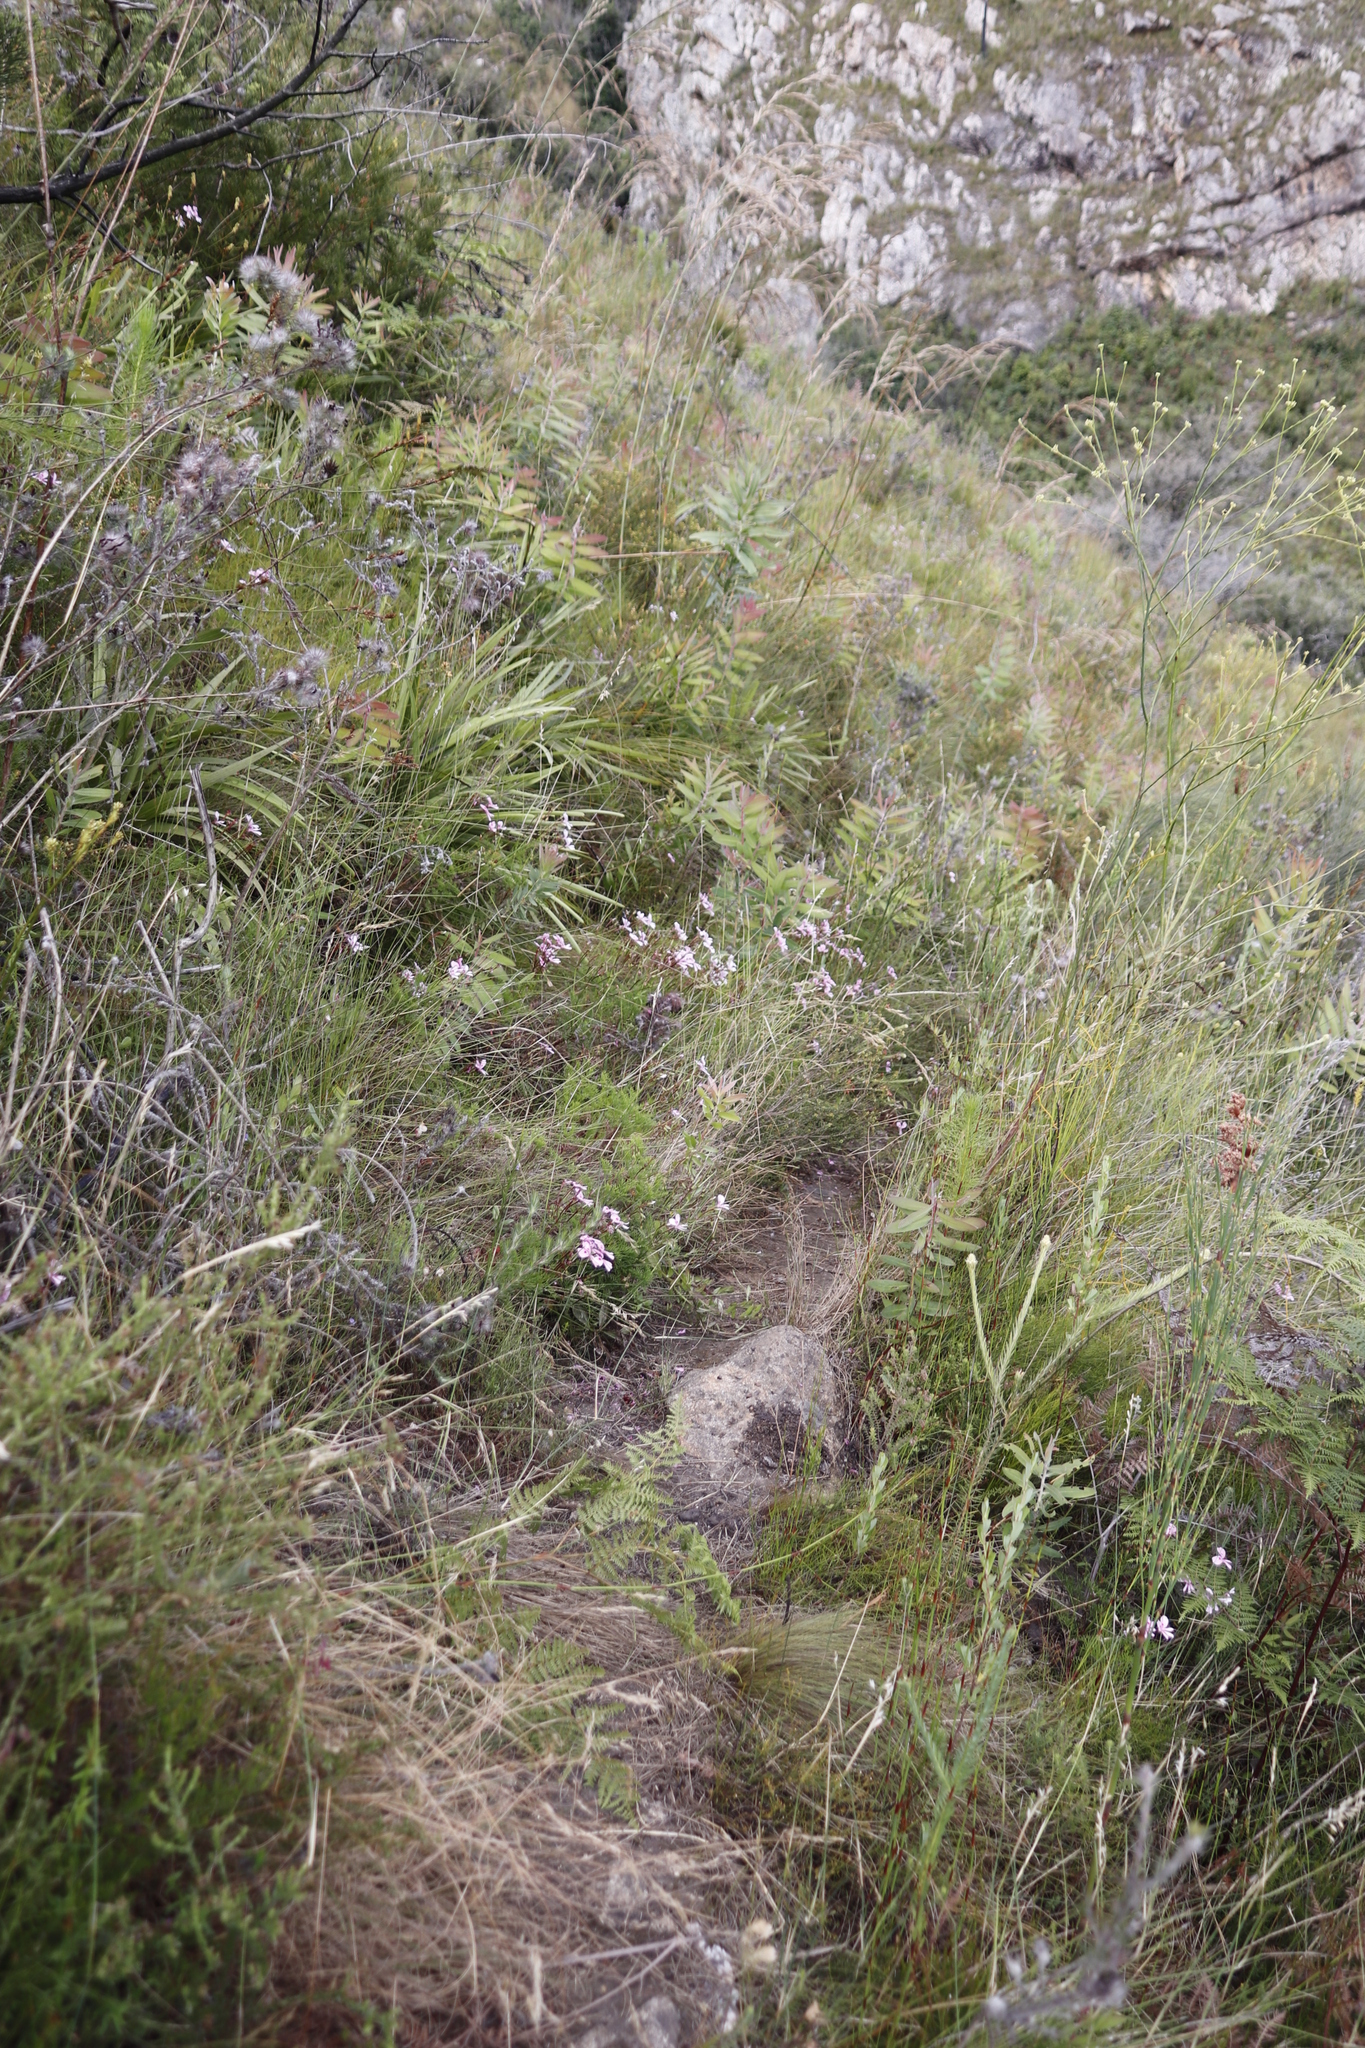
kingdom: Plantae
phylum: Tracheophyta
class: Magnoliopsida
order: Geraniales
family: Geraniaceae
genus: Pelargonium
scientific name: Pelargonium artemisiifolium
